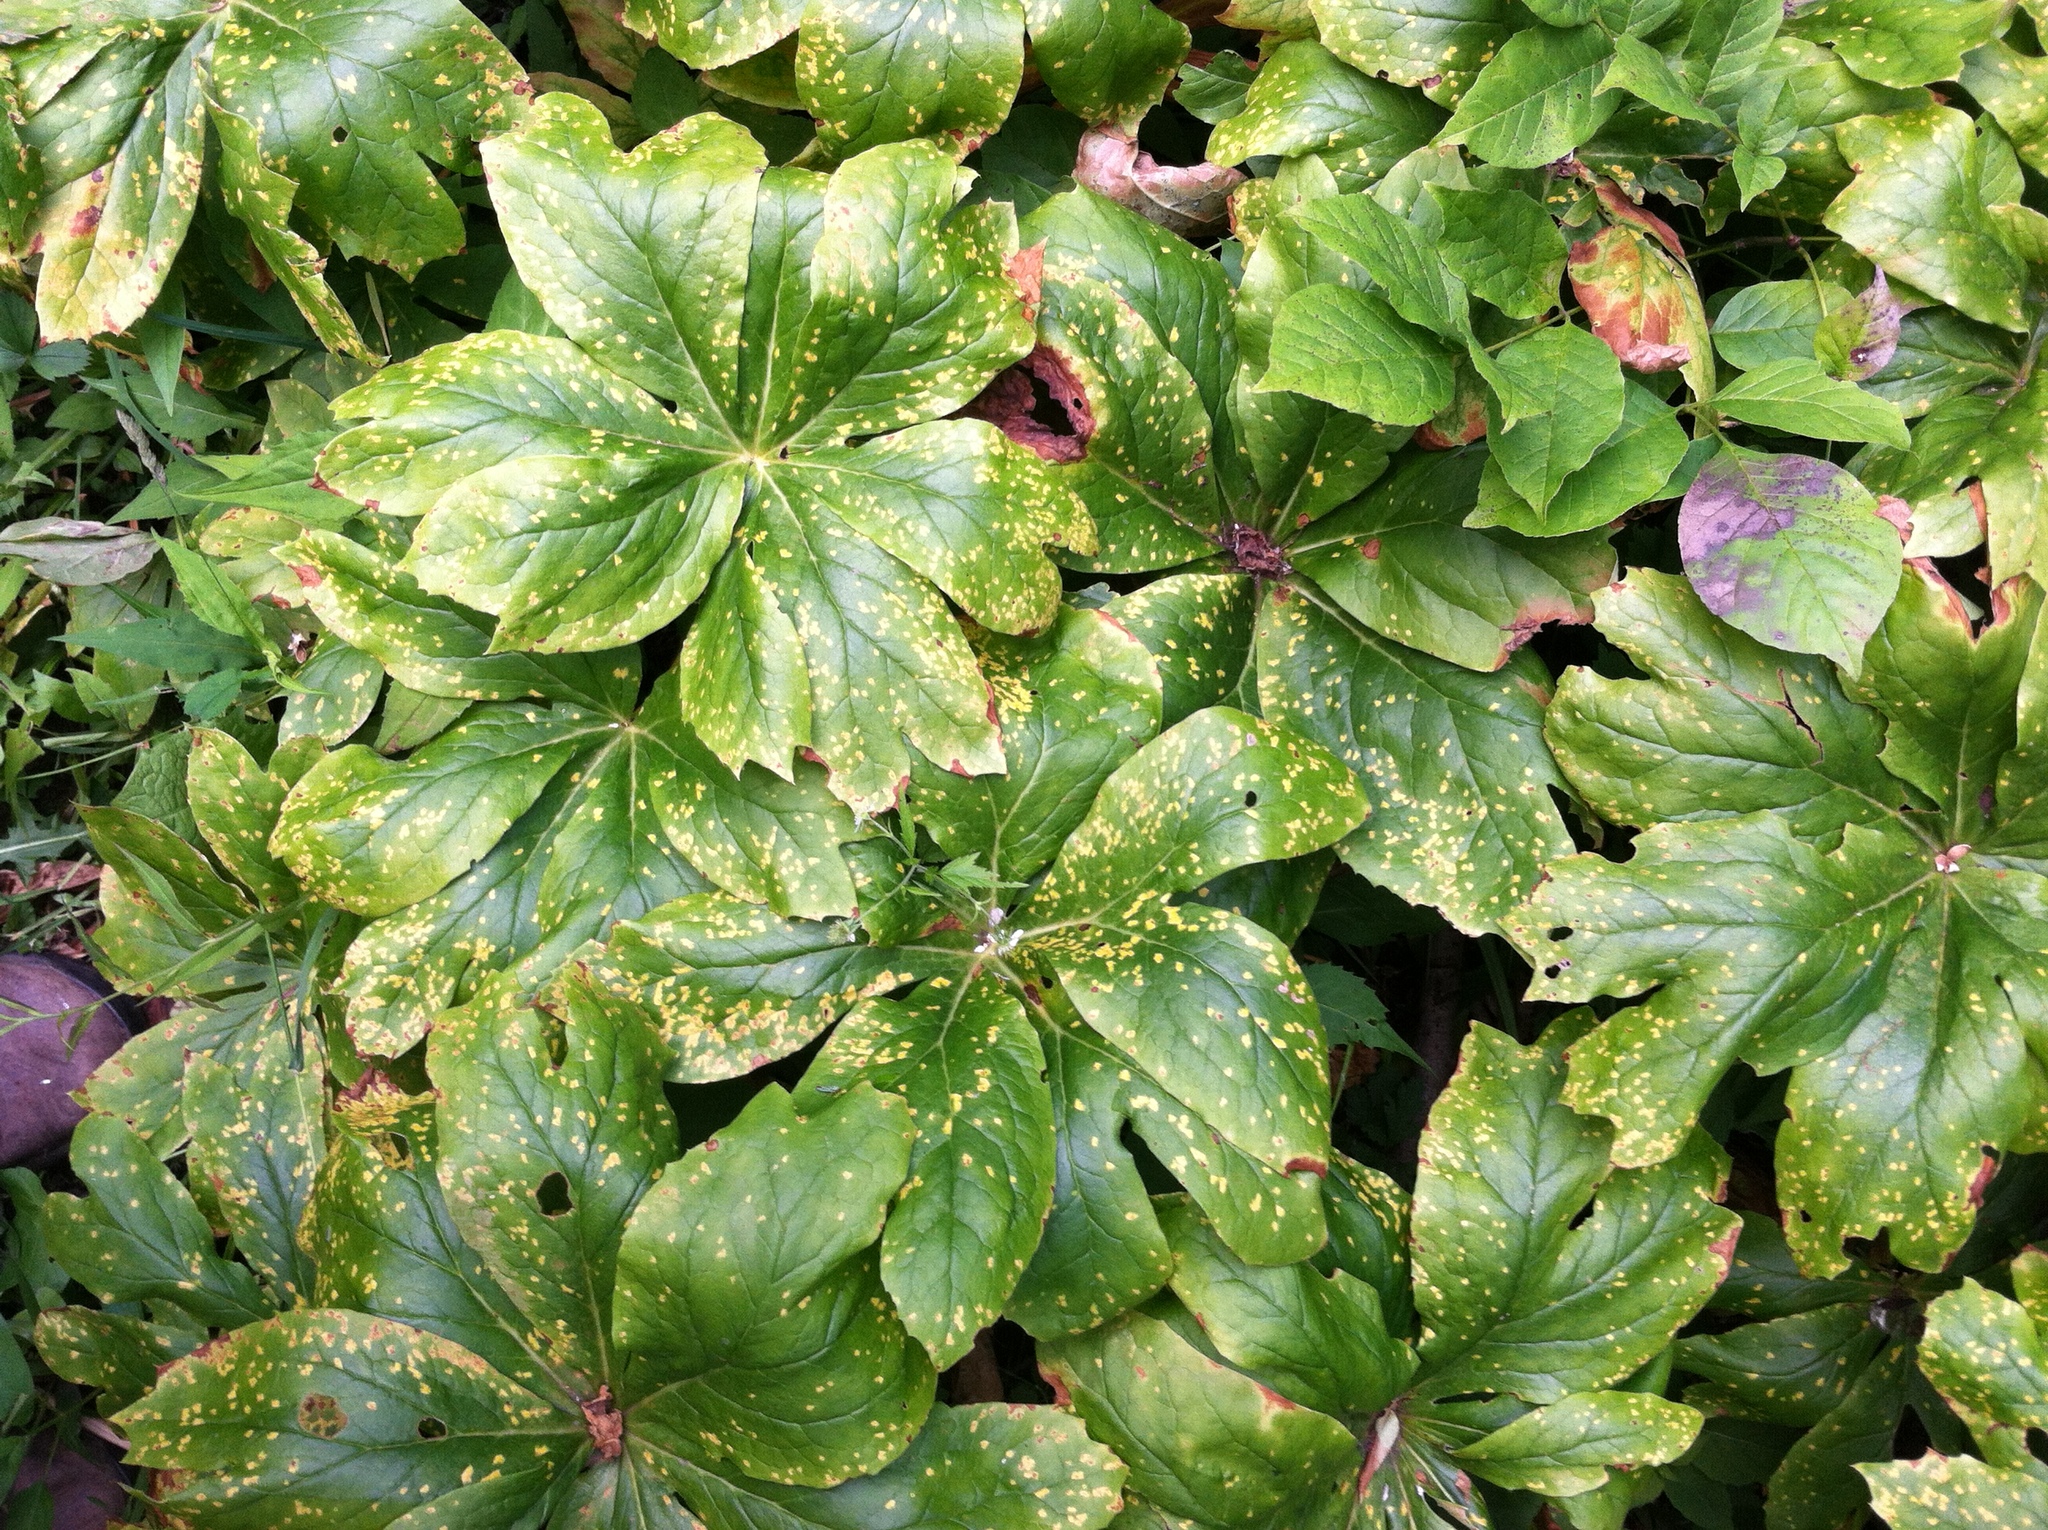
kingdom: Plantae
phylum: Tracheophyta
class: Magnoliopsida
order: Ranunculales
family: Berberidaceae
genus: Podophyllum
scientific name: Podophyllum peltatum
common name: Wild mandrake
